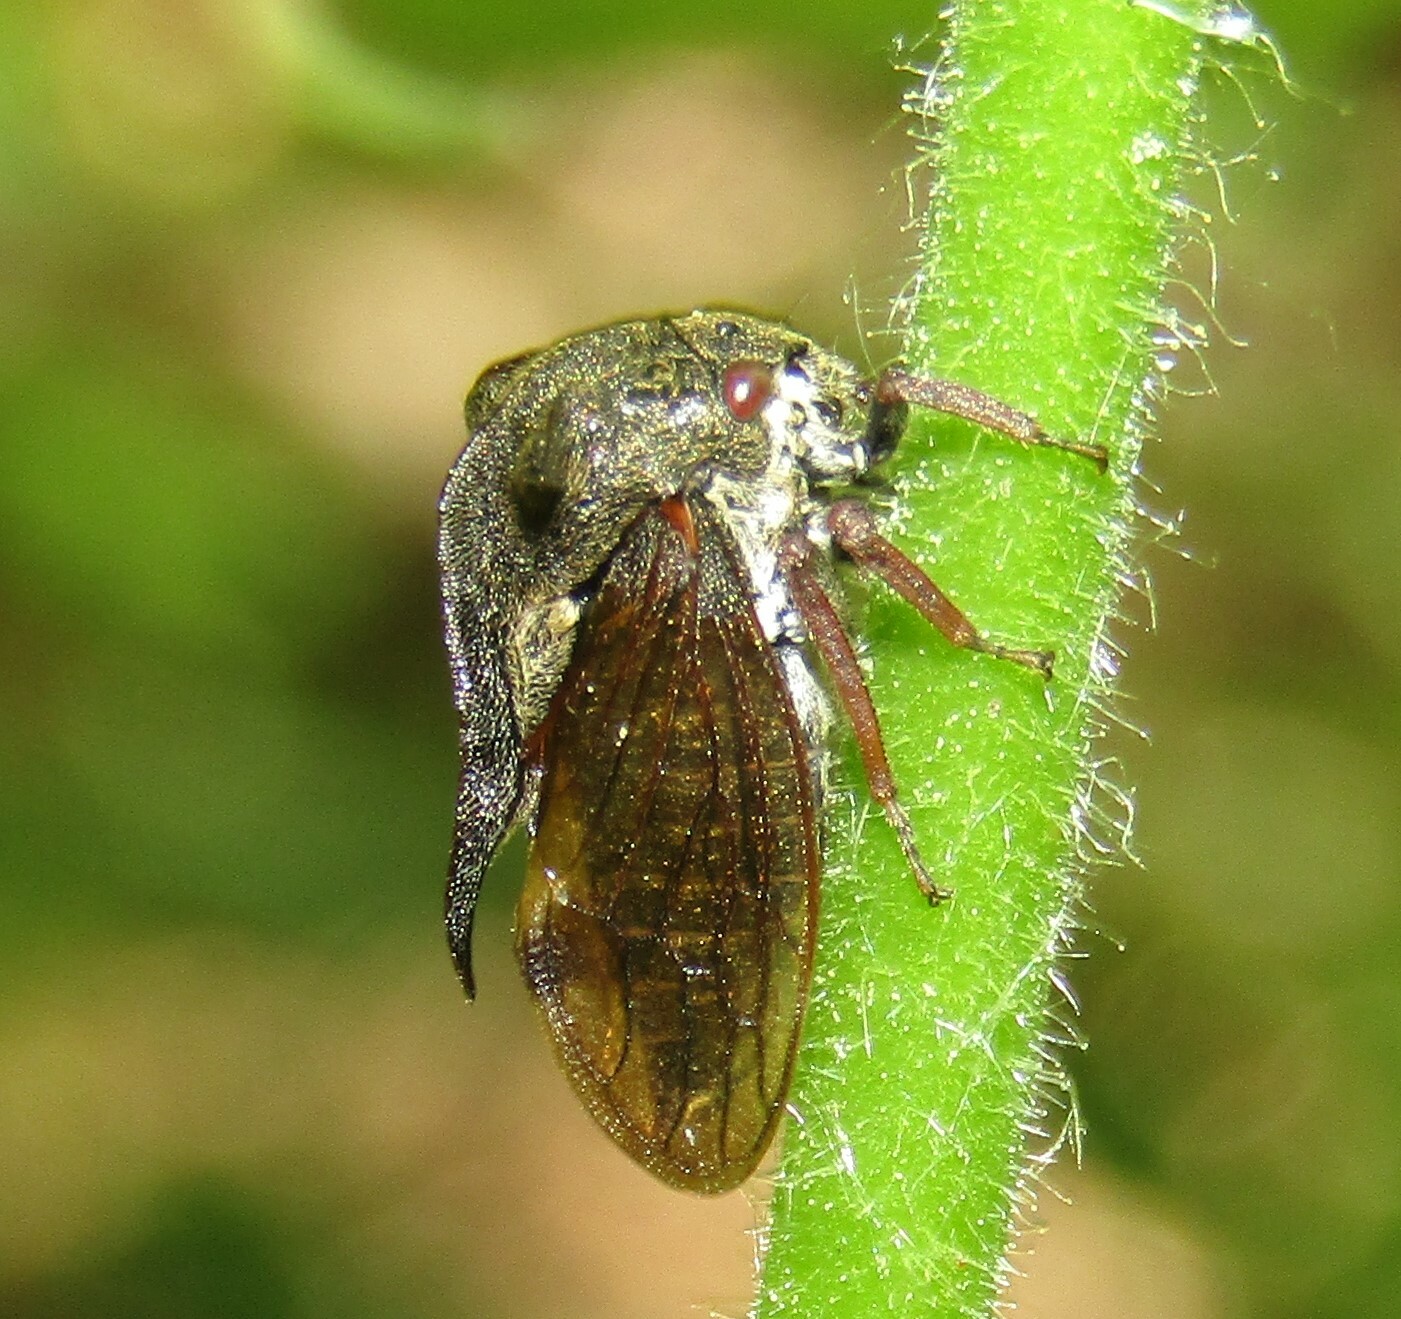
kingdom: Animalia
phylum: Arthropoda
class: Insecta
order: Hemiptera
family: Membracidae
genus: Centrotus
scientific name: Centrotus cornuta
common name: Treehopper
